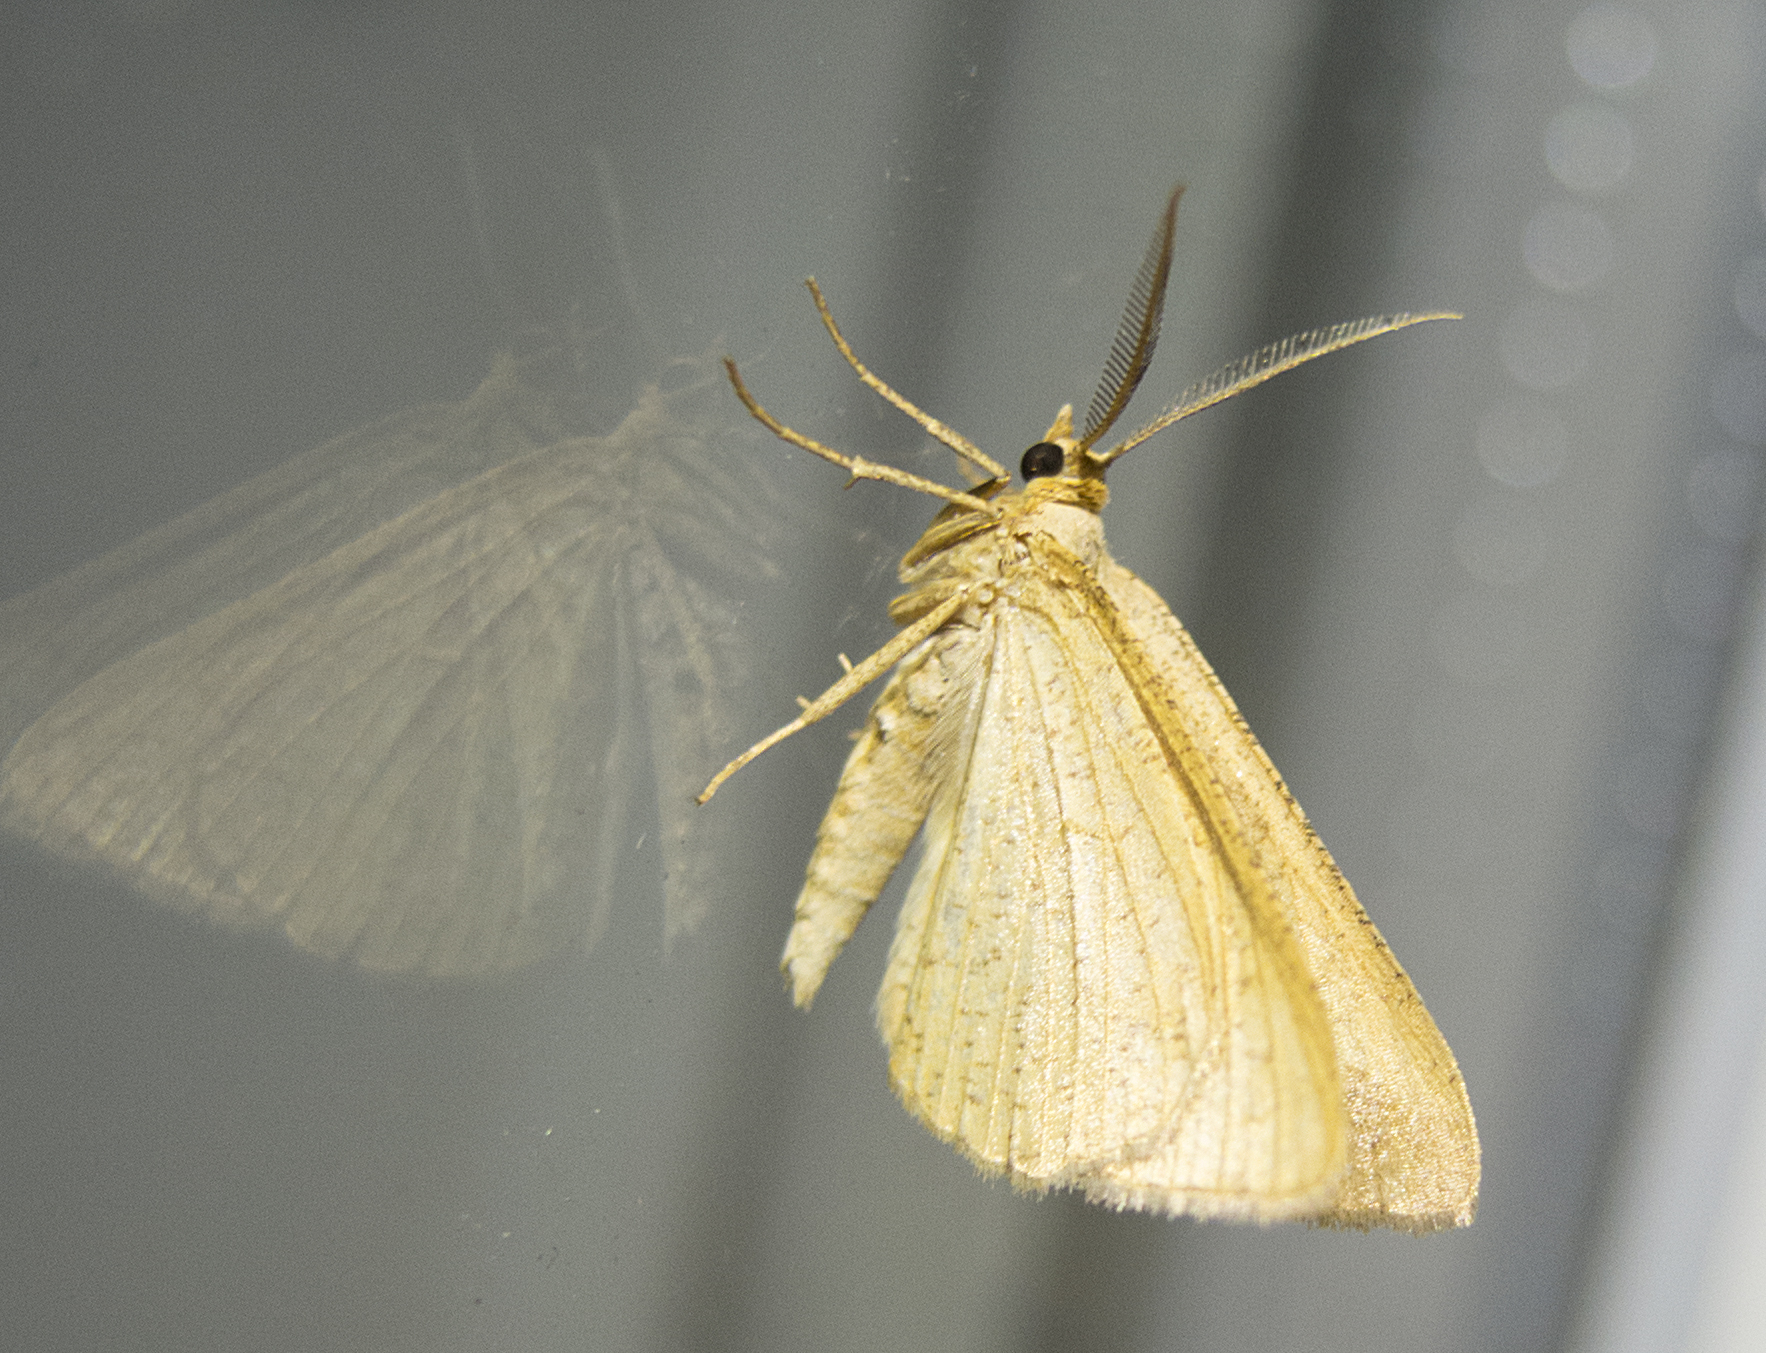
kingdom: Animalia
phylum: Arthropoda
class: Insecta
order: Lepidoptera
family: Geometridae
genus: Tephrina
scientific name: Tephrina arenacearia
